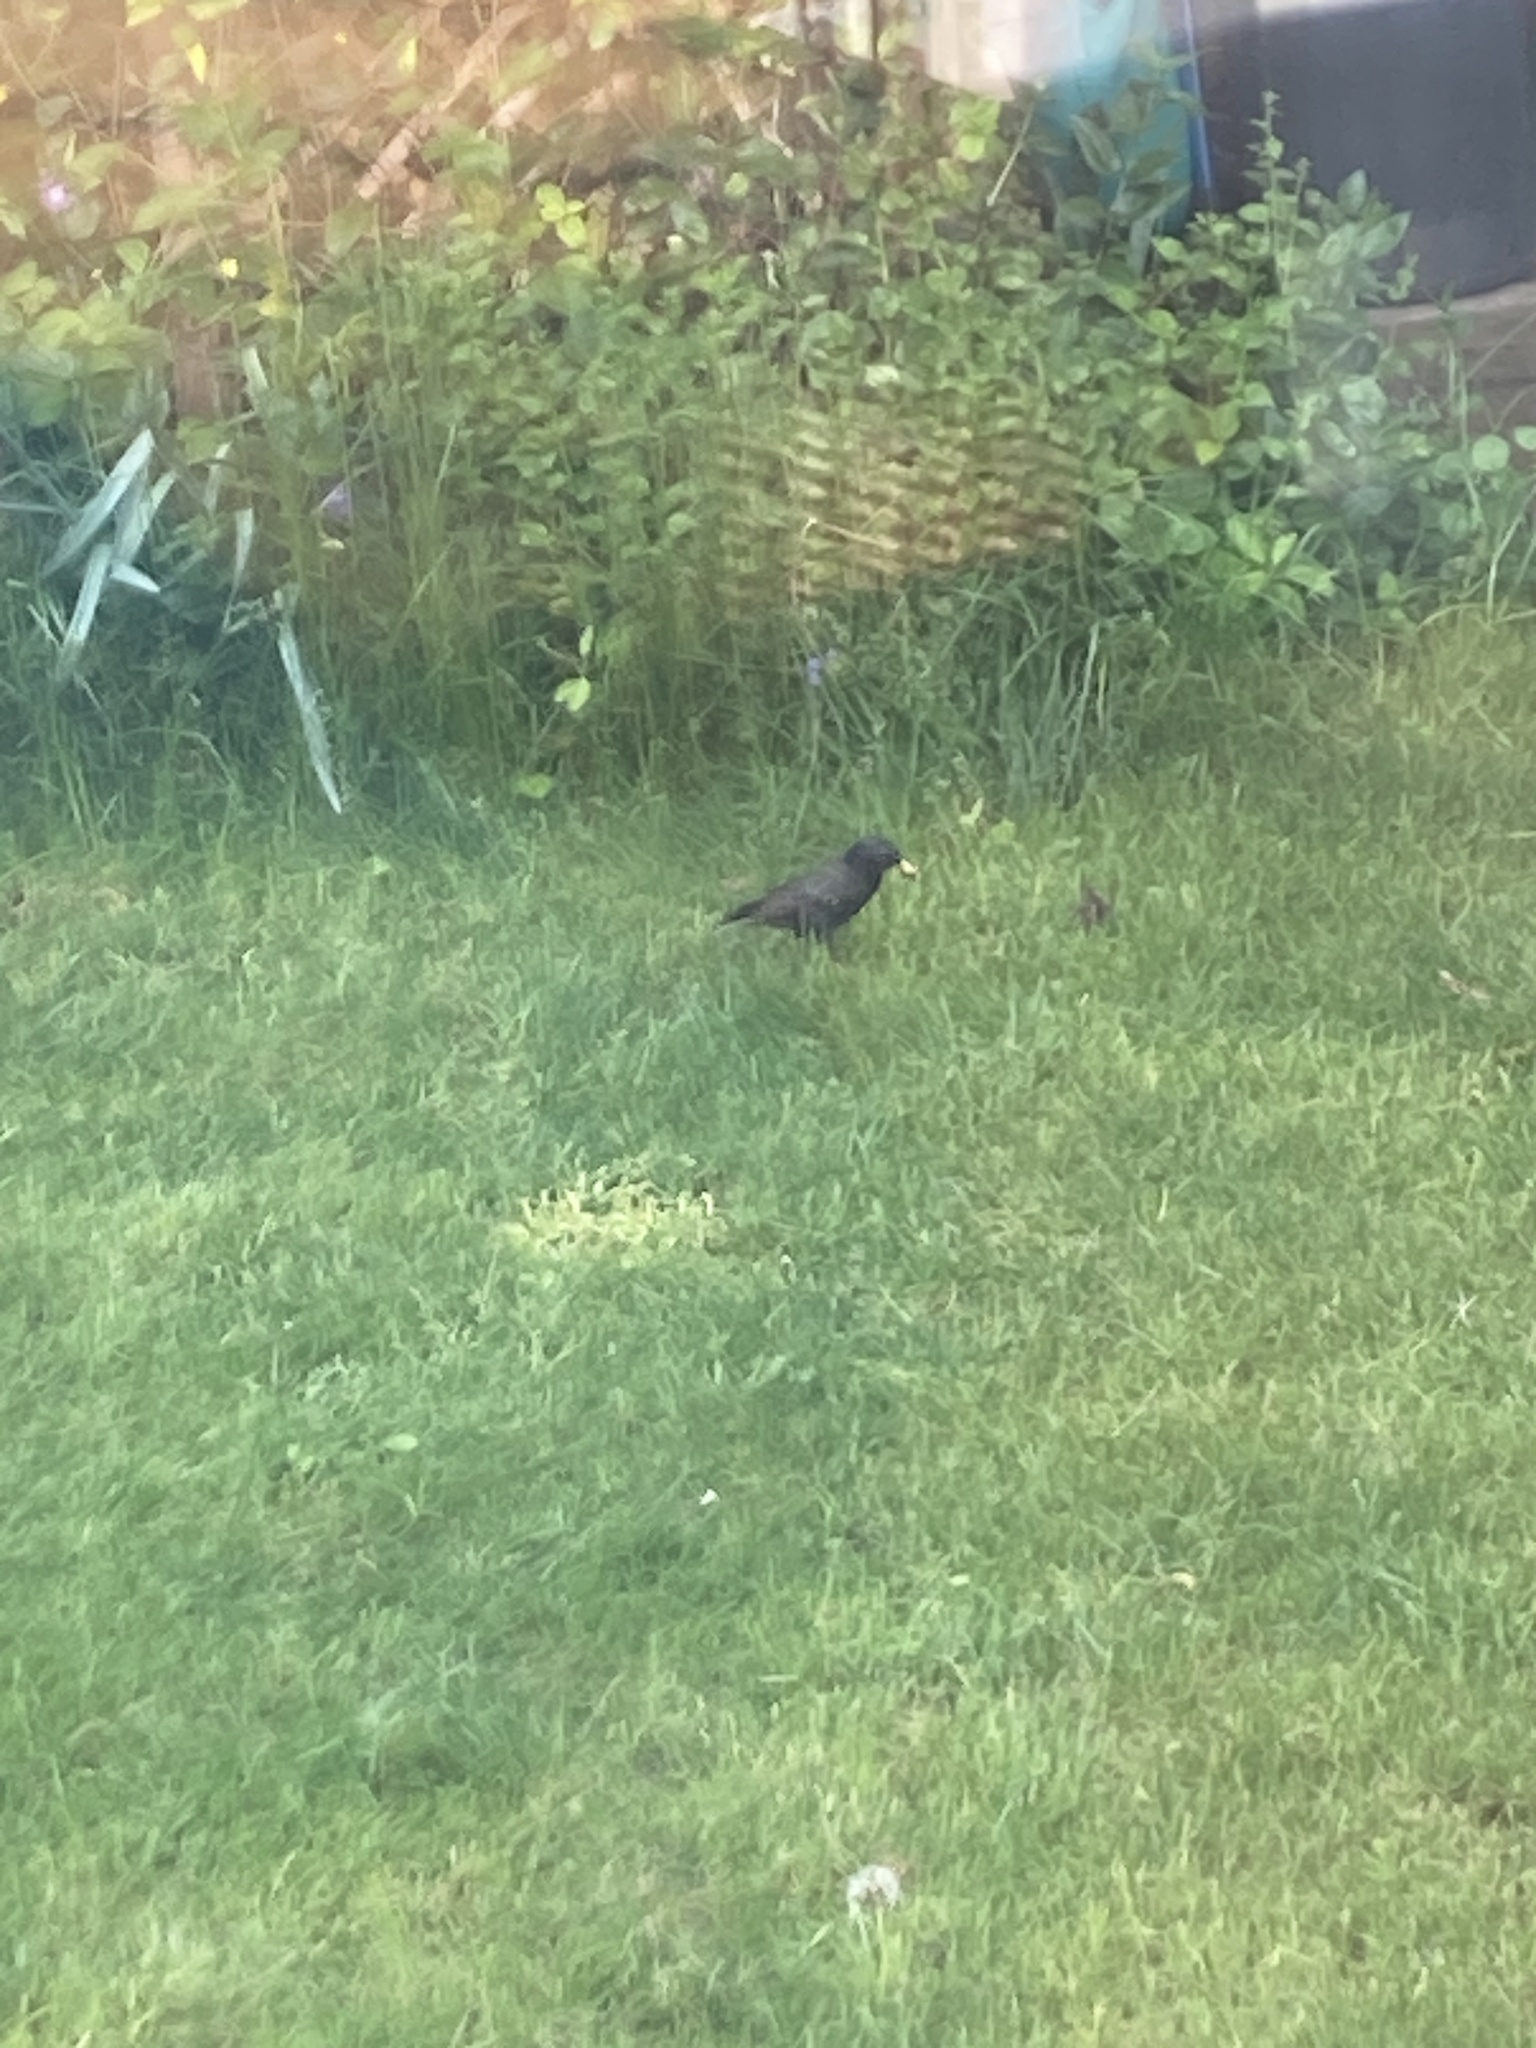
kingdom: Animalia
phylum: Chordata
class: Aves
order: Passeriformes
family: Sturnidae
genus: Sturnus
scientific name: Sturnus vulgaris
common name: Common starling
